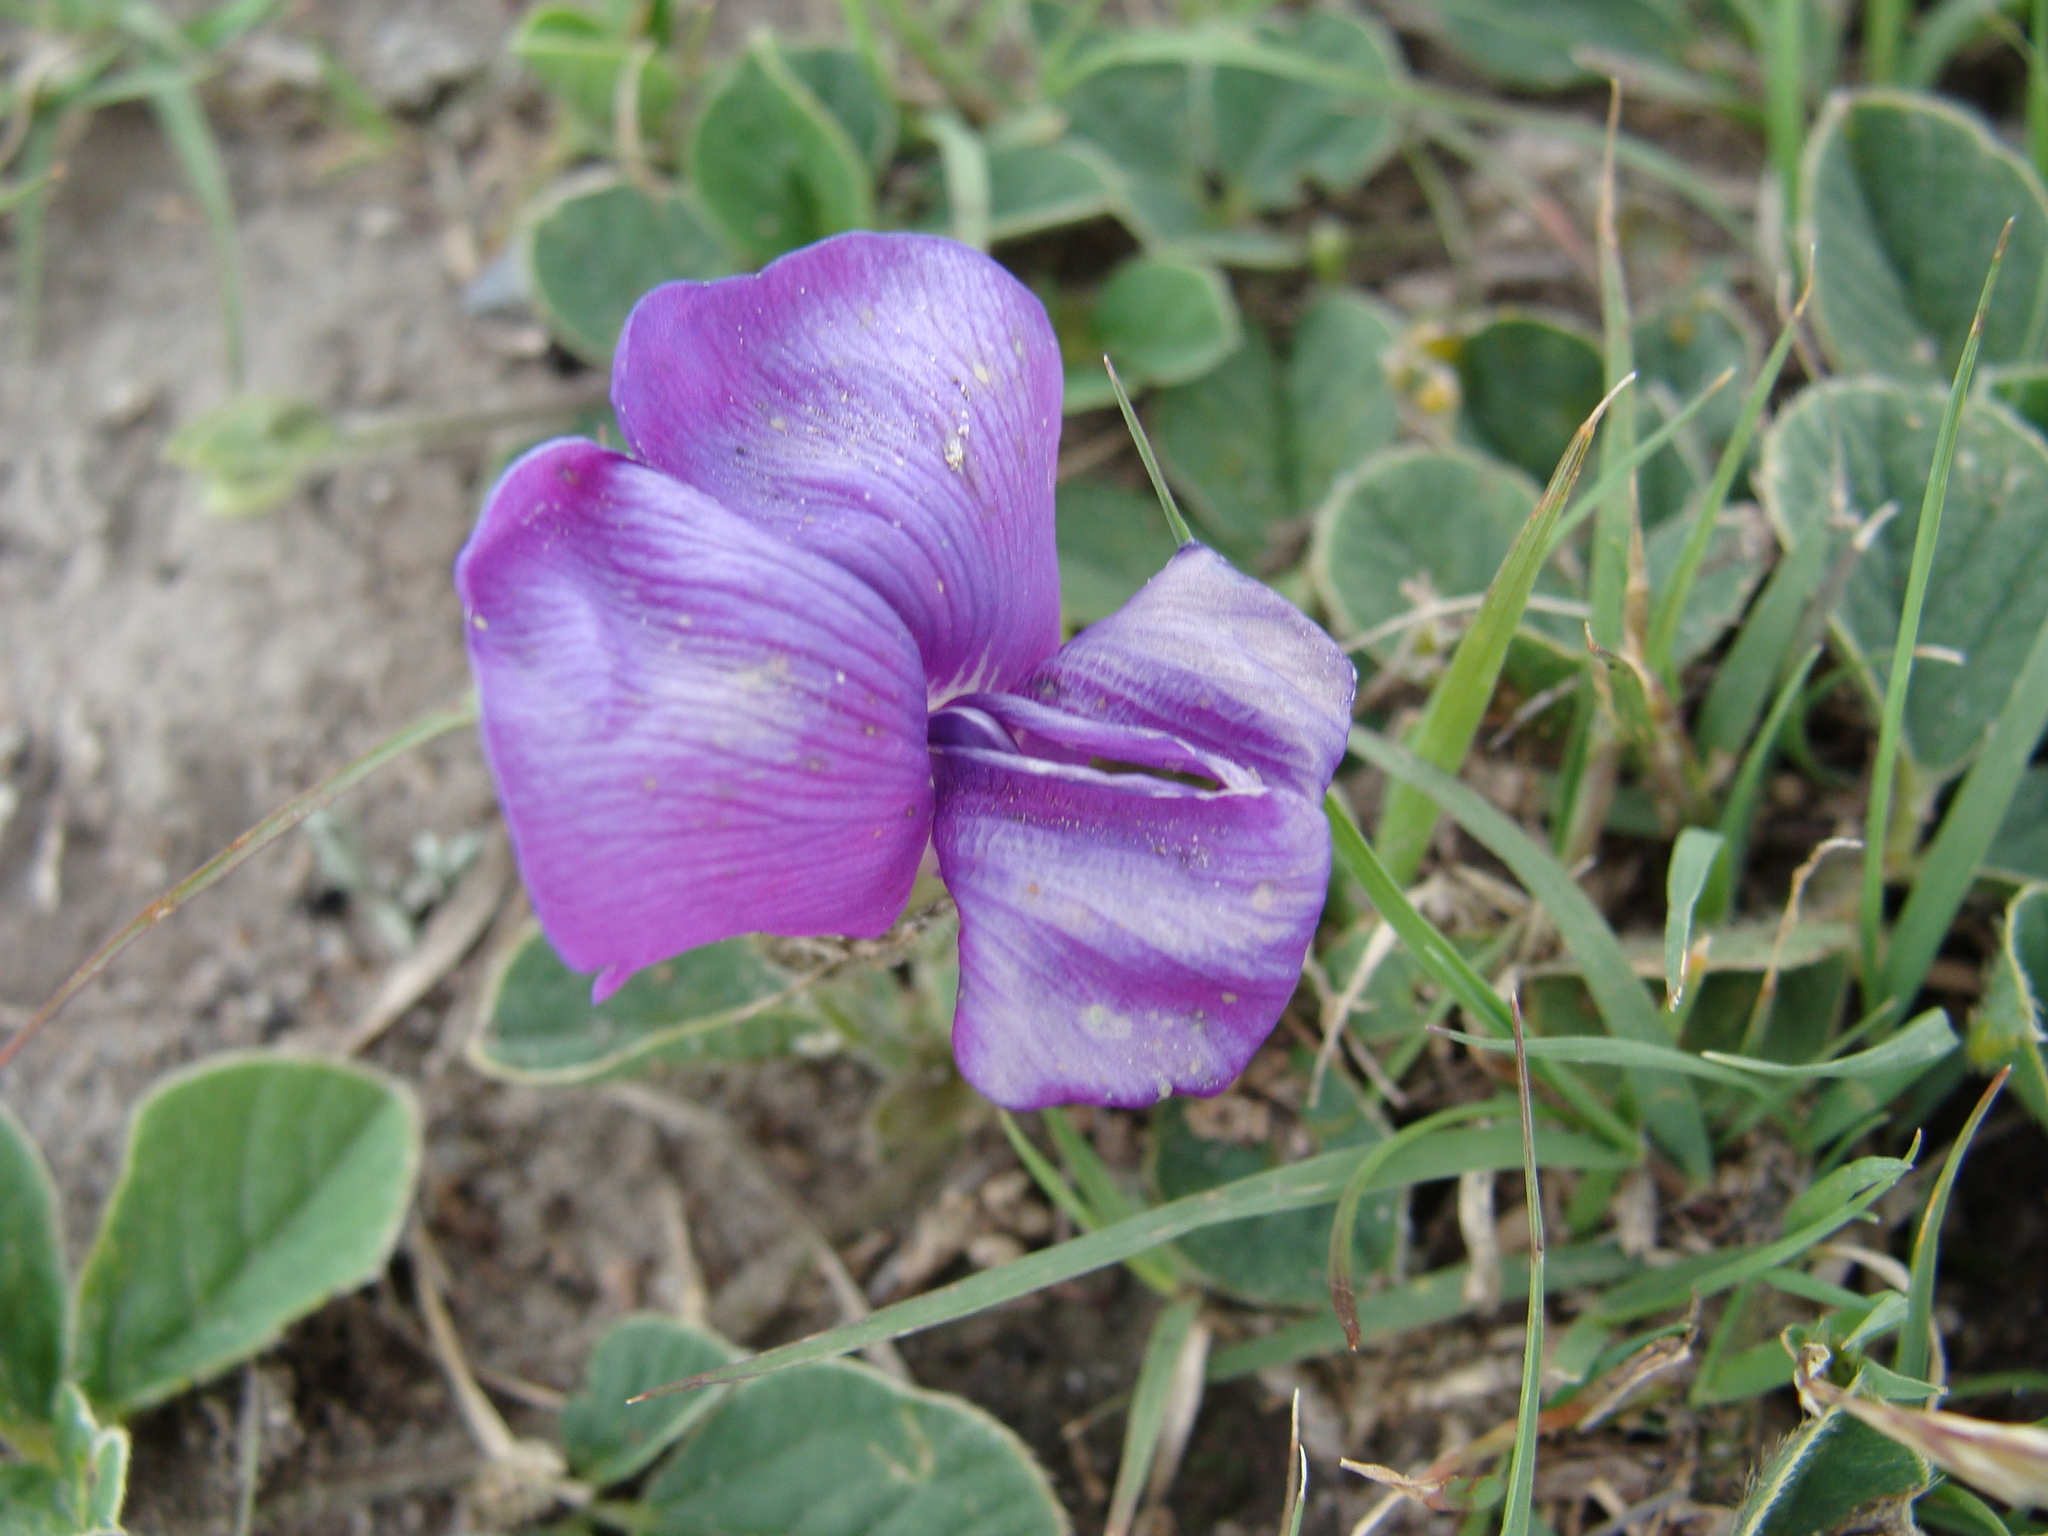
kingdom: Plantae
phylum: Tracheophyta
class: Magnoliopsida
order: Fabales
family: Fabaceae
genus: Cologania
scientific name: Cologania obovata
